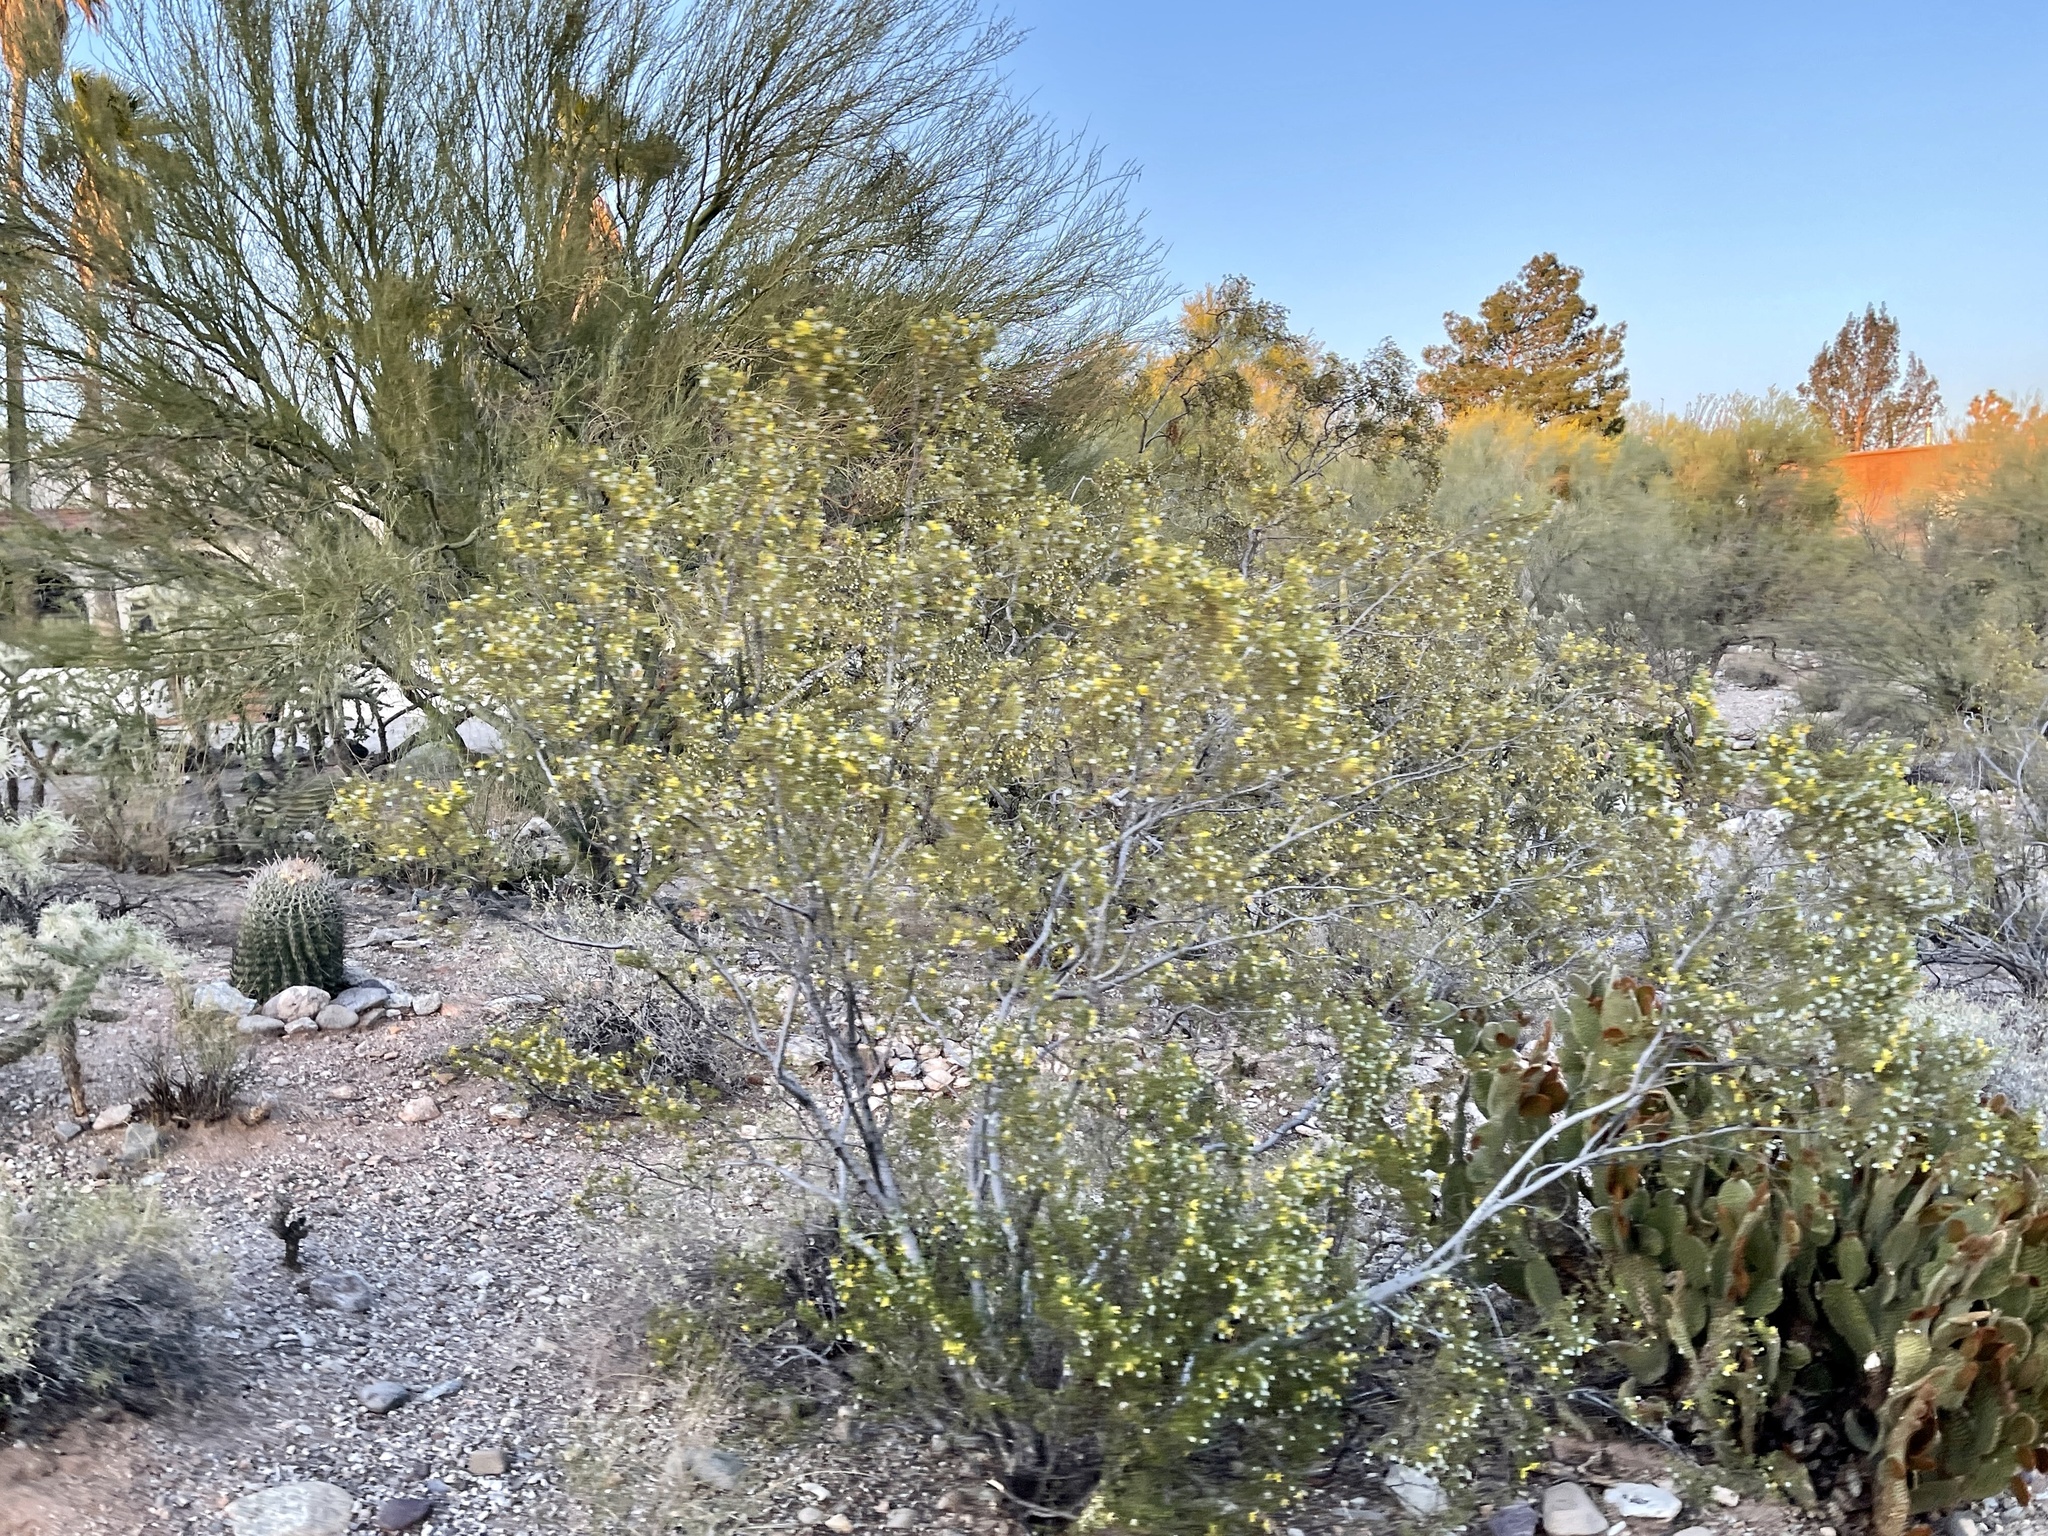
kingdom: Plantae
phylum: Tracheophyta
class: Magnoliopsida
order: Zygophyllales
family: Zygophyllaceae
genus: Larrea
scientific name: Larrea tridentata
